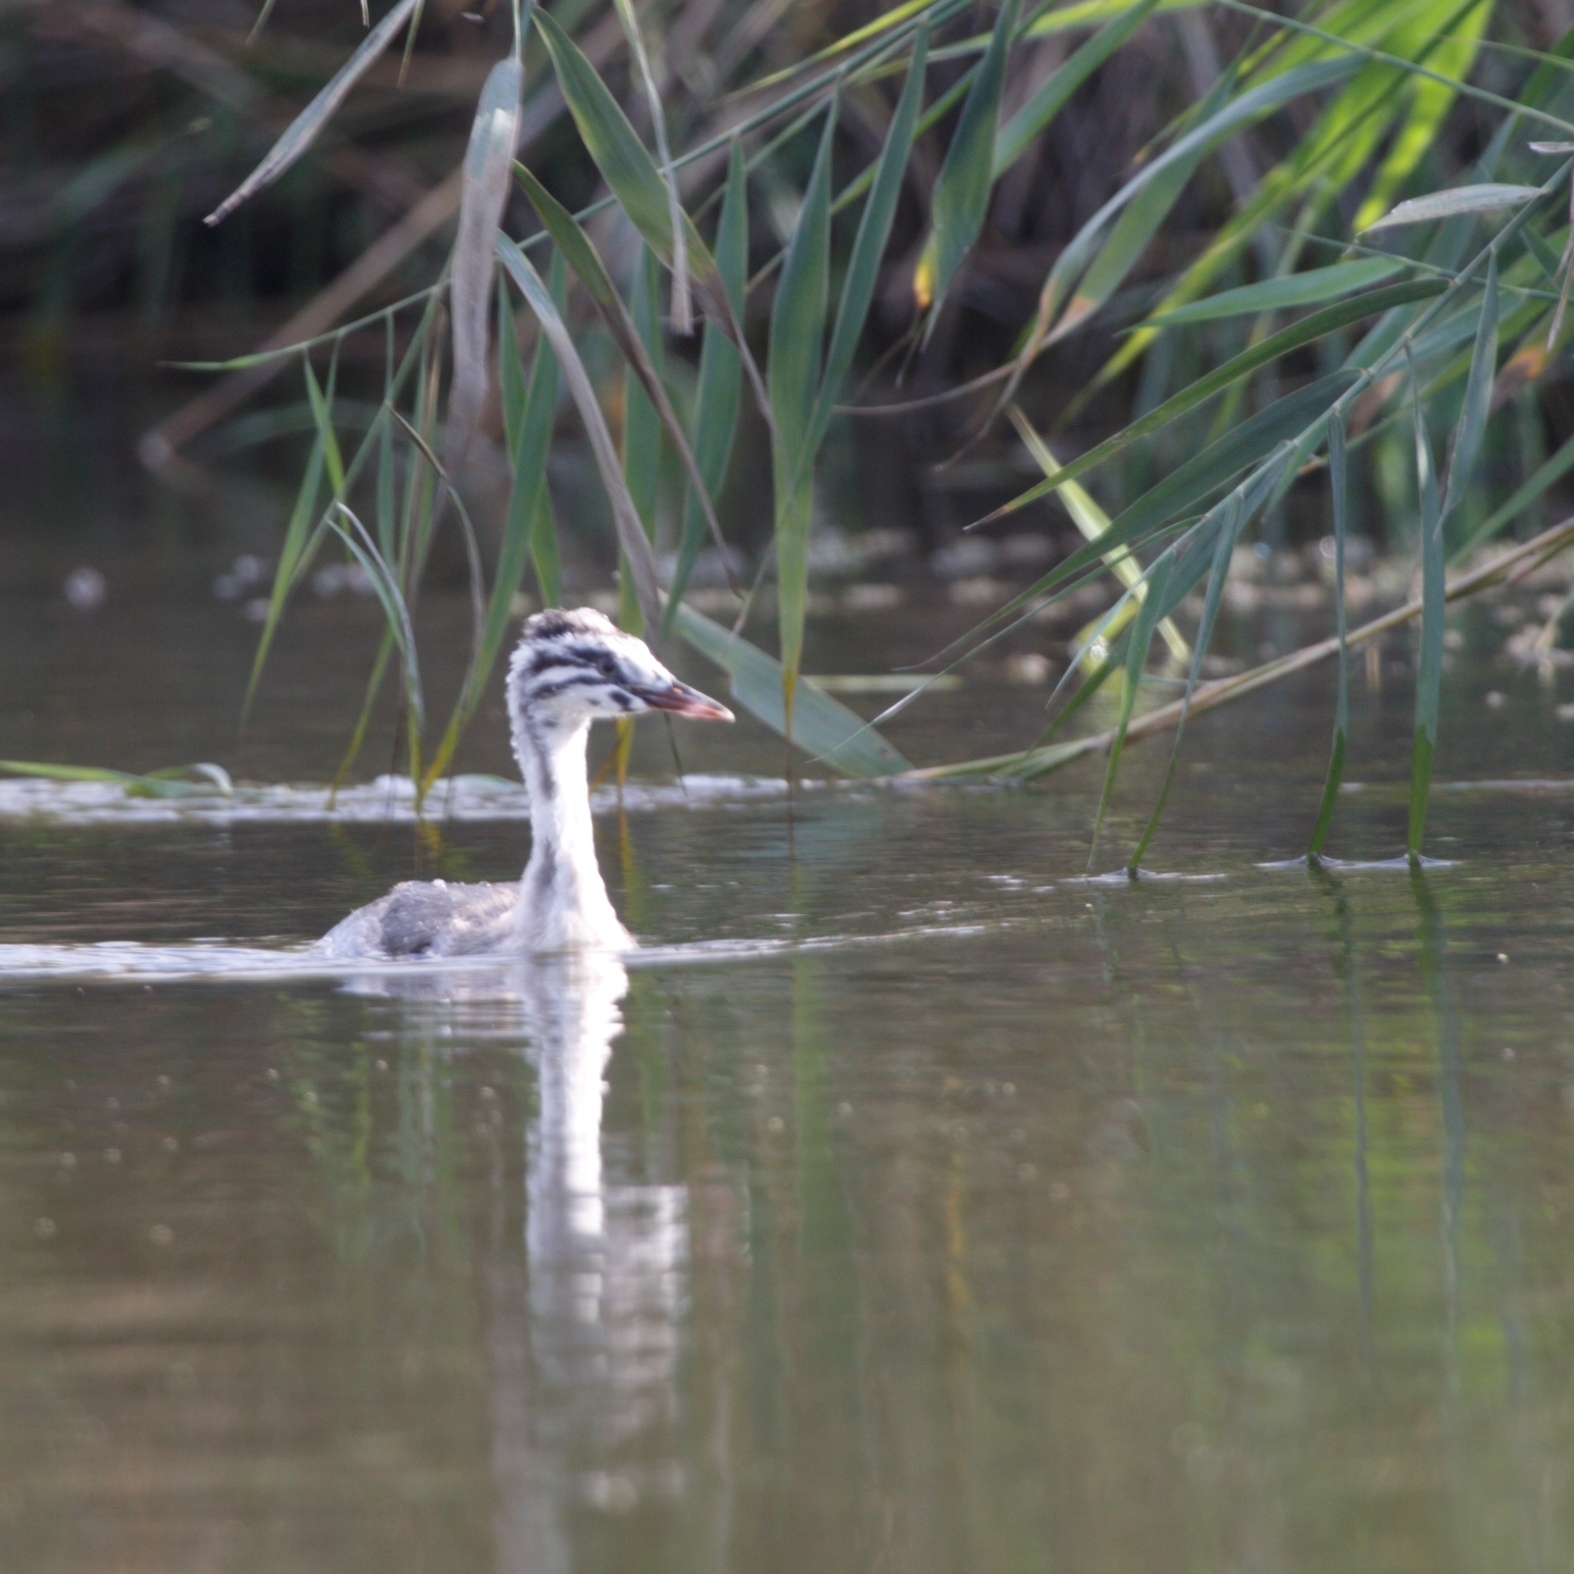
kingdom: Animalia
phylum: Chordata
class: Aves
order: Podicipediformes
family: Podicipedidae
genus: Podiceps
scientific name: Podiceps cristatus
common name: Great crested grebe
